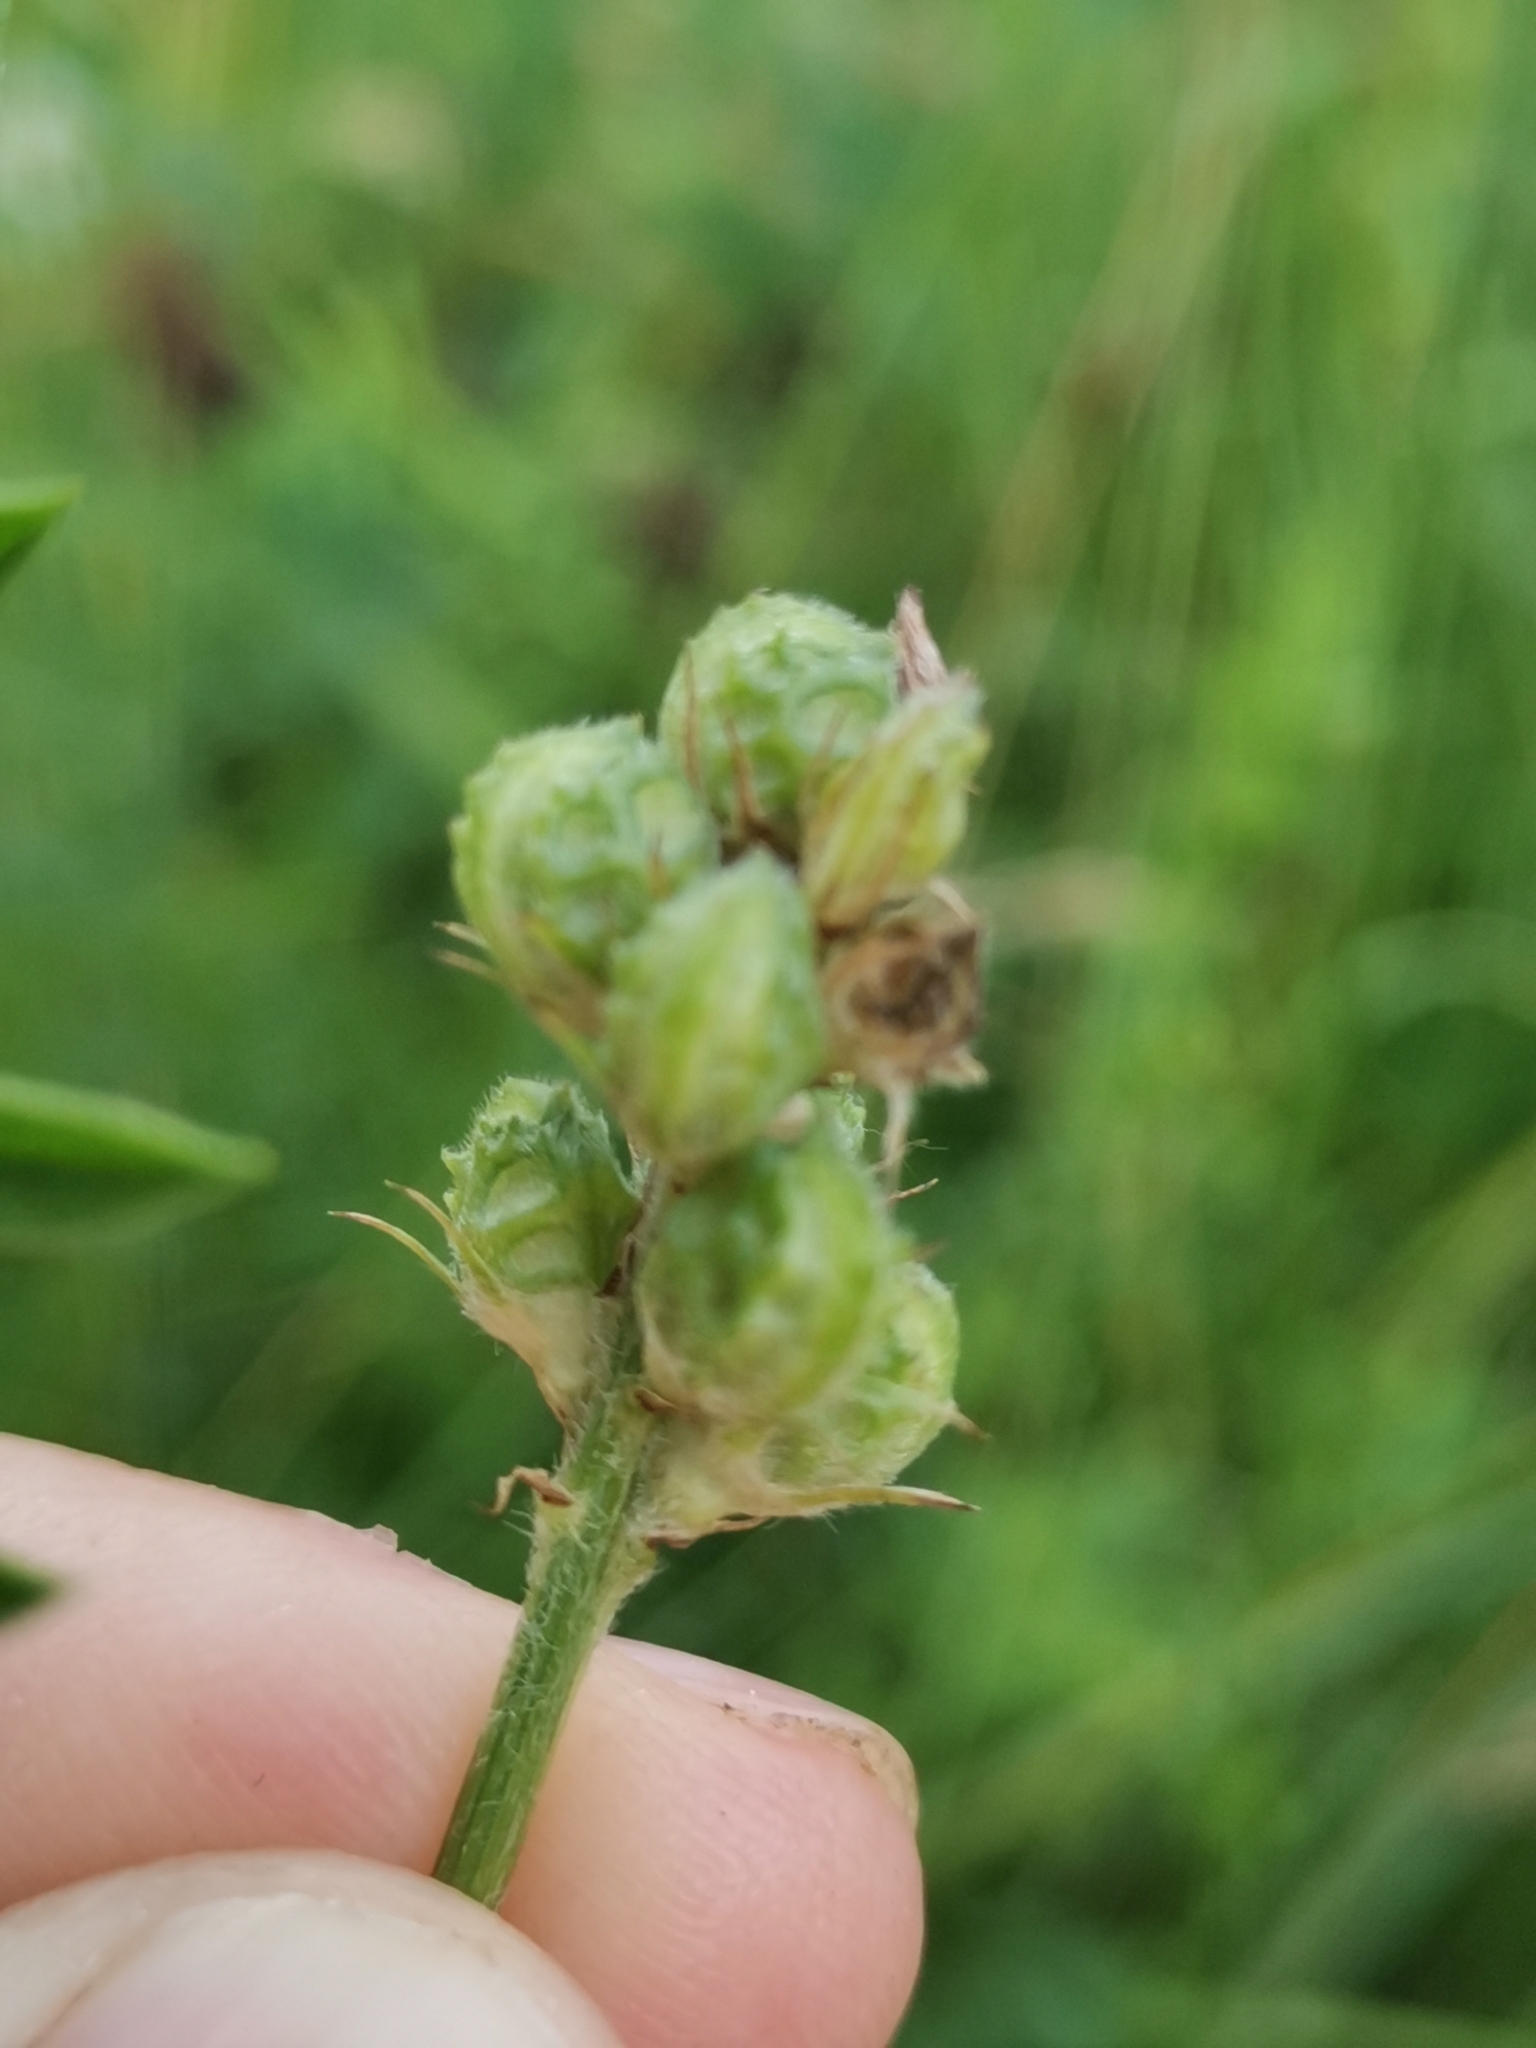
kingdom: Plantae
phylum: Tracheophyta
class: Magnoliopsida
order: Fabales
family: Fabaceae
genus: Onobrychis
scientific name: Onobrychis viciifolia
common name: Sainfoin
